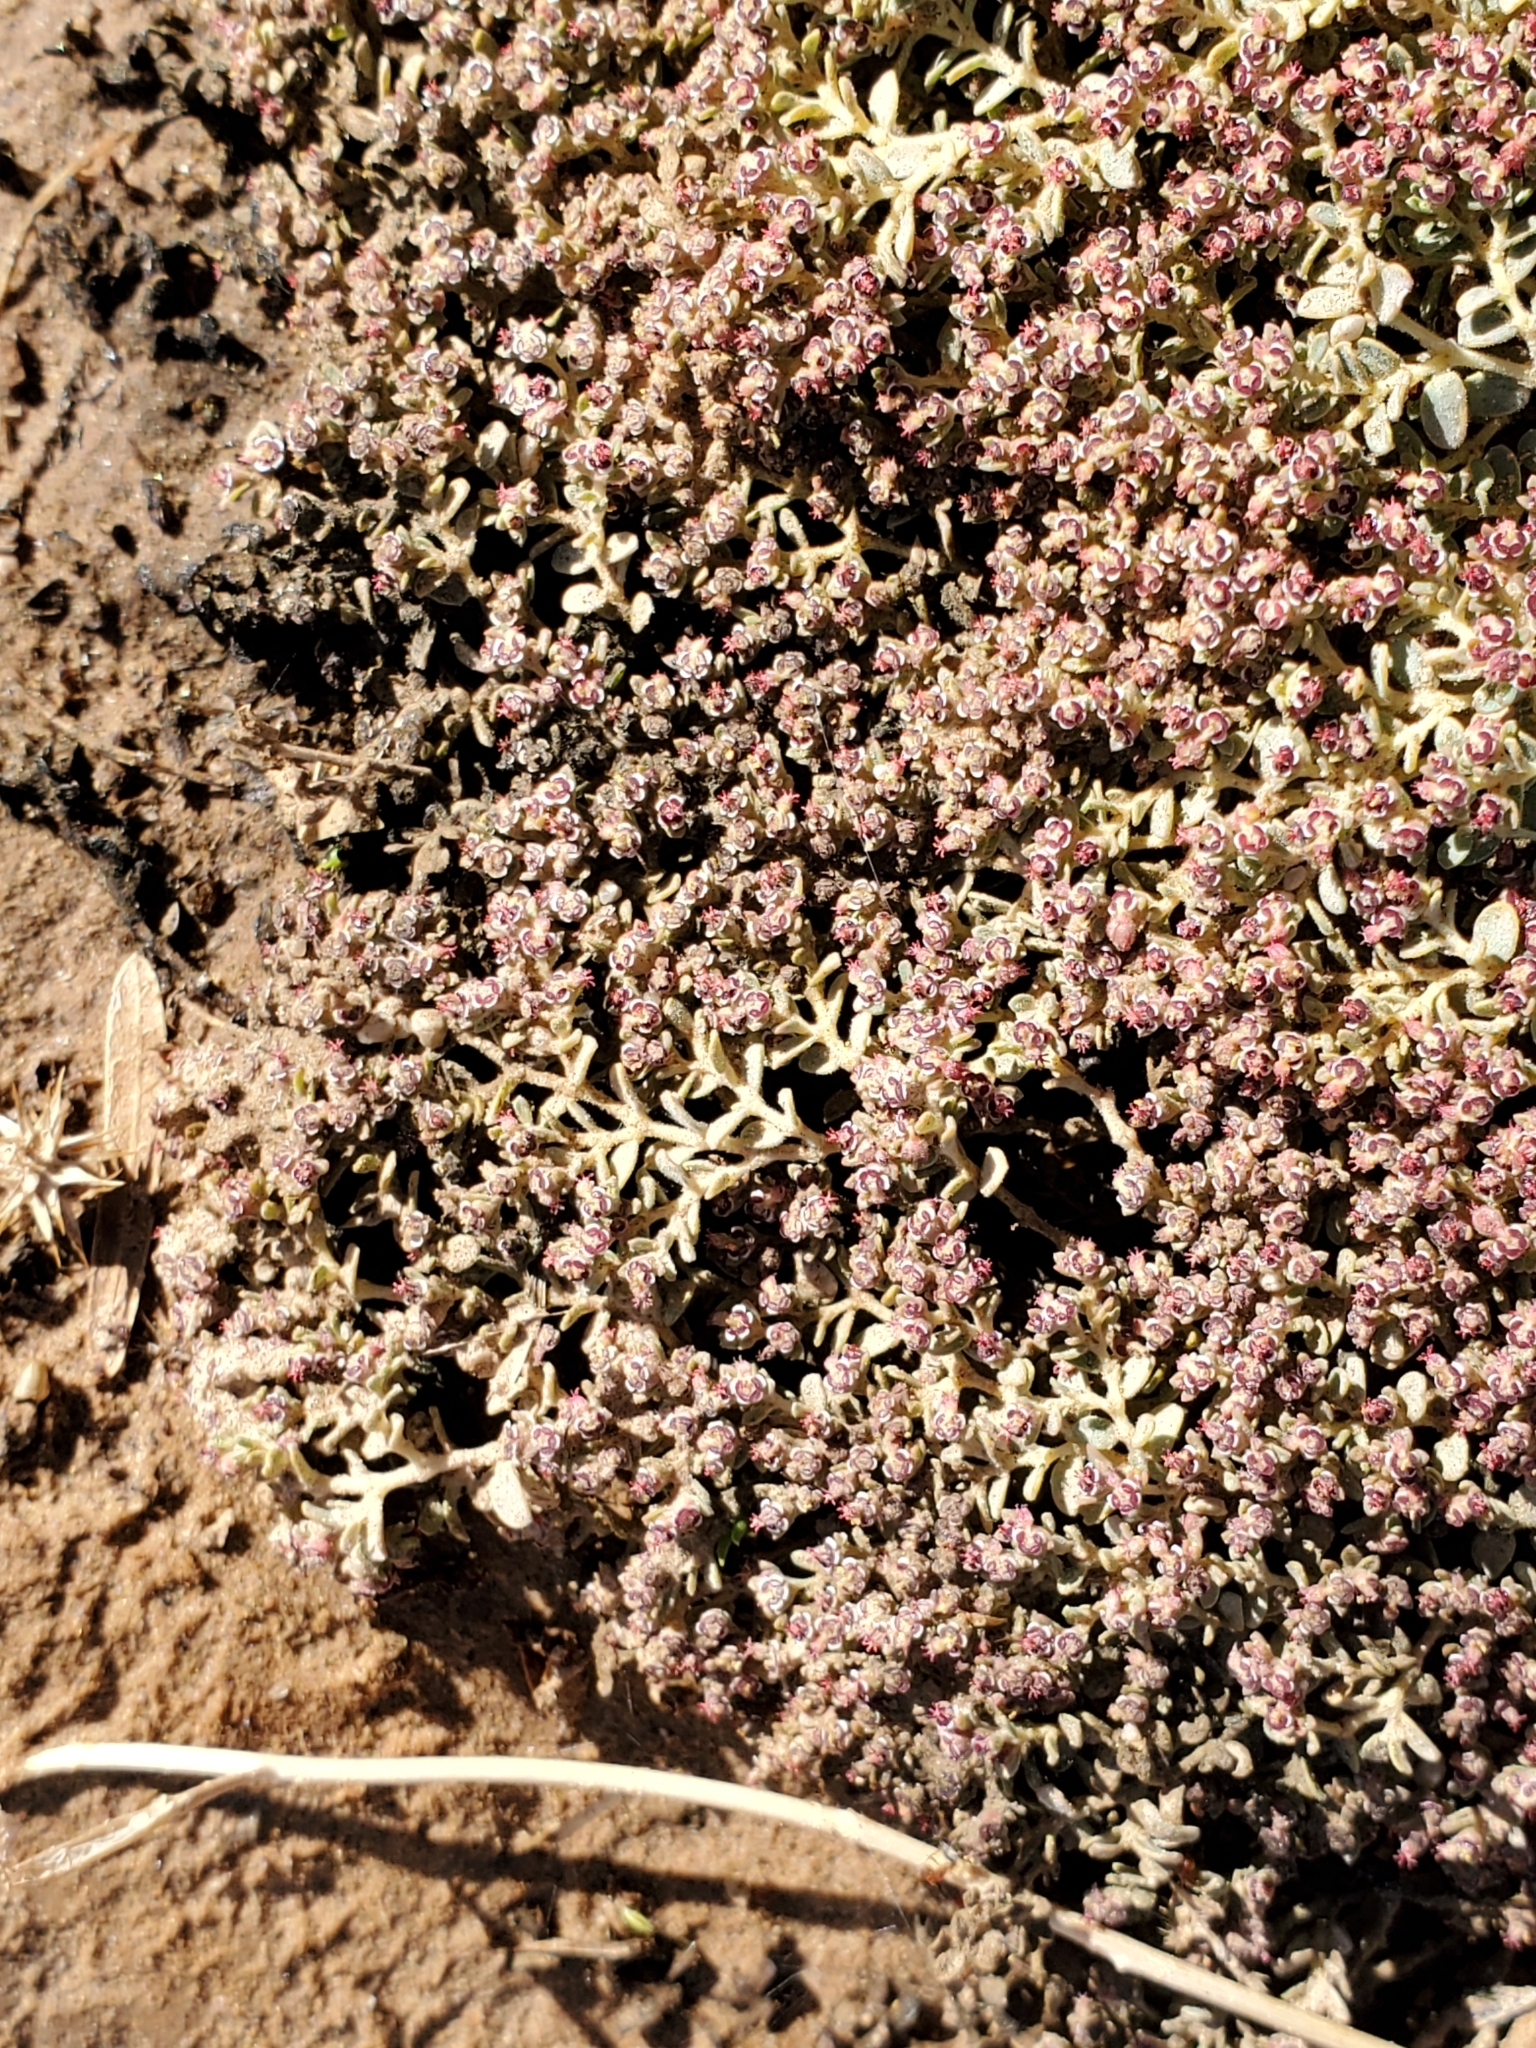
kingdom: Plantae
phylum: Tracheophyta
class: Magnoliopsida
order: Malpighiales
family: Euphorbiaceae
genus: Euphorbia
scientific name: Euphorbia polycarpa
